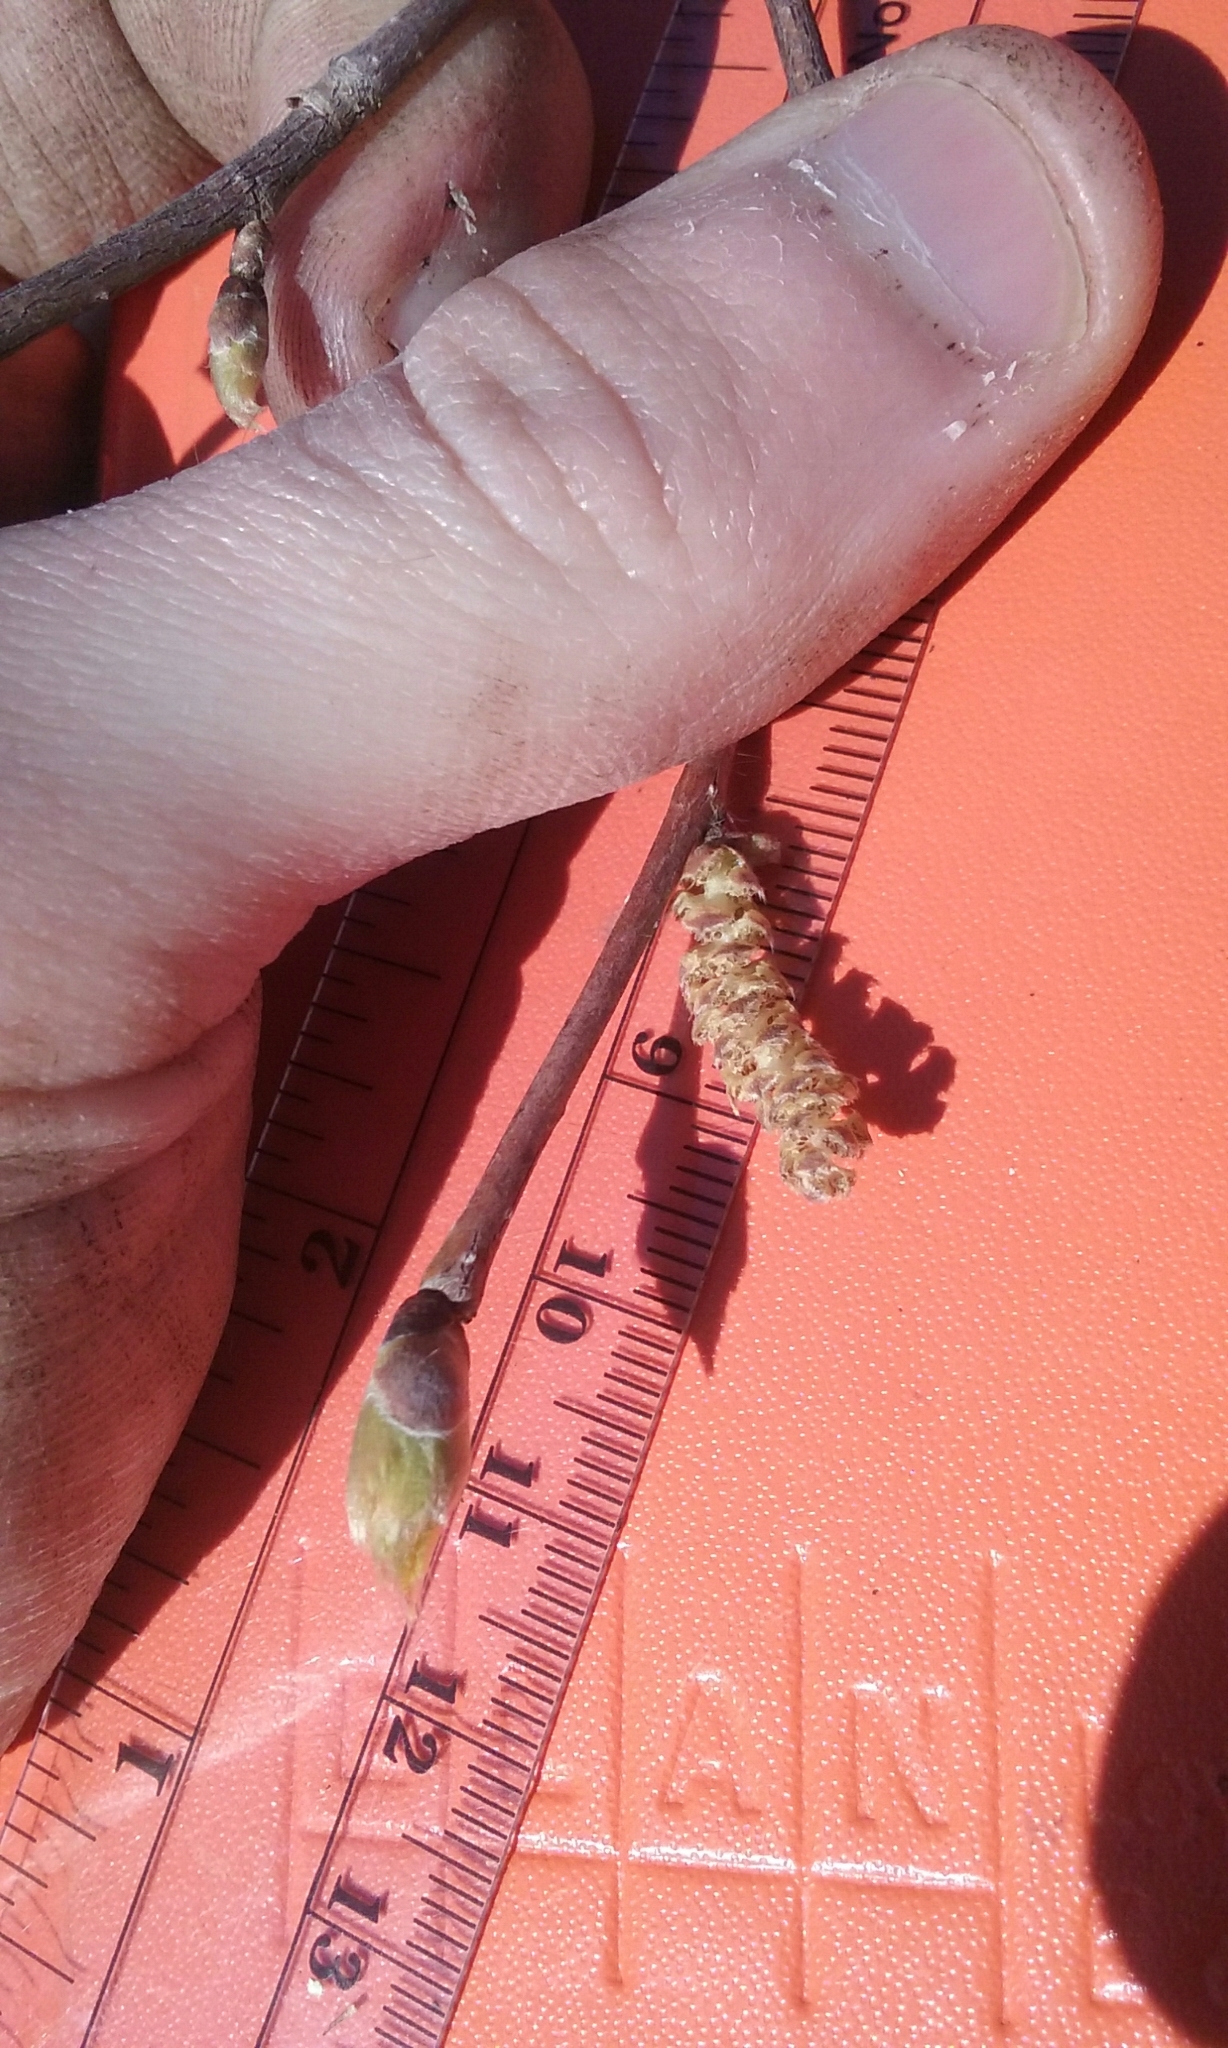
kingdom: Plantae
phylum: Tracheophyta
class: Magnoliopsida
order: Fagales
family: Betulaceae
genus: Corylus
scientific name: Corylus cornuta
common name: Beaked hazel
